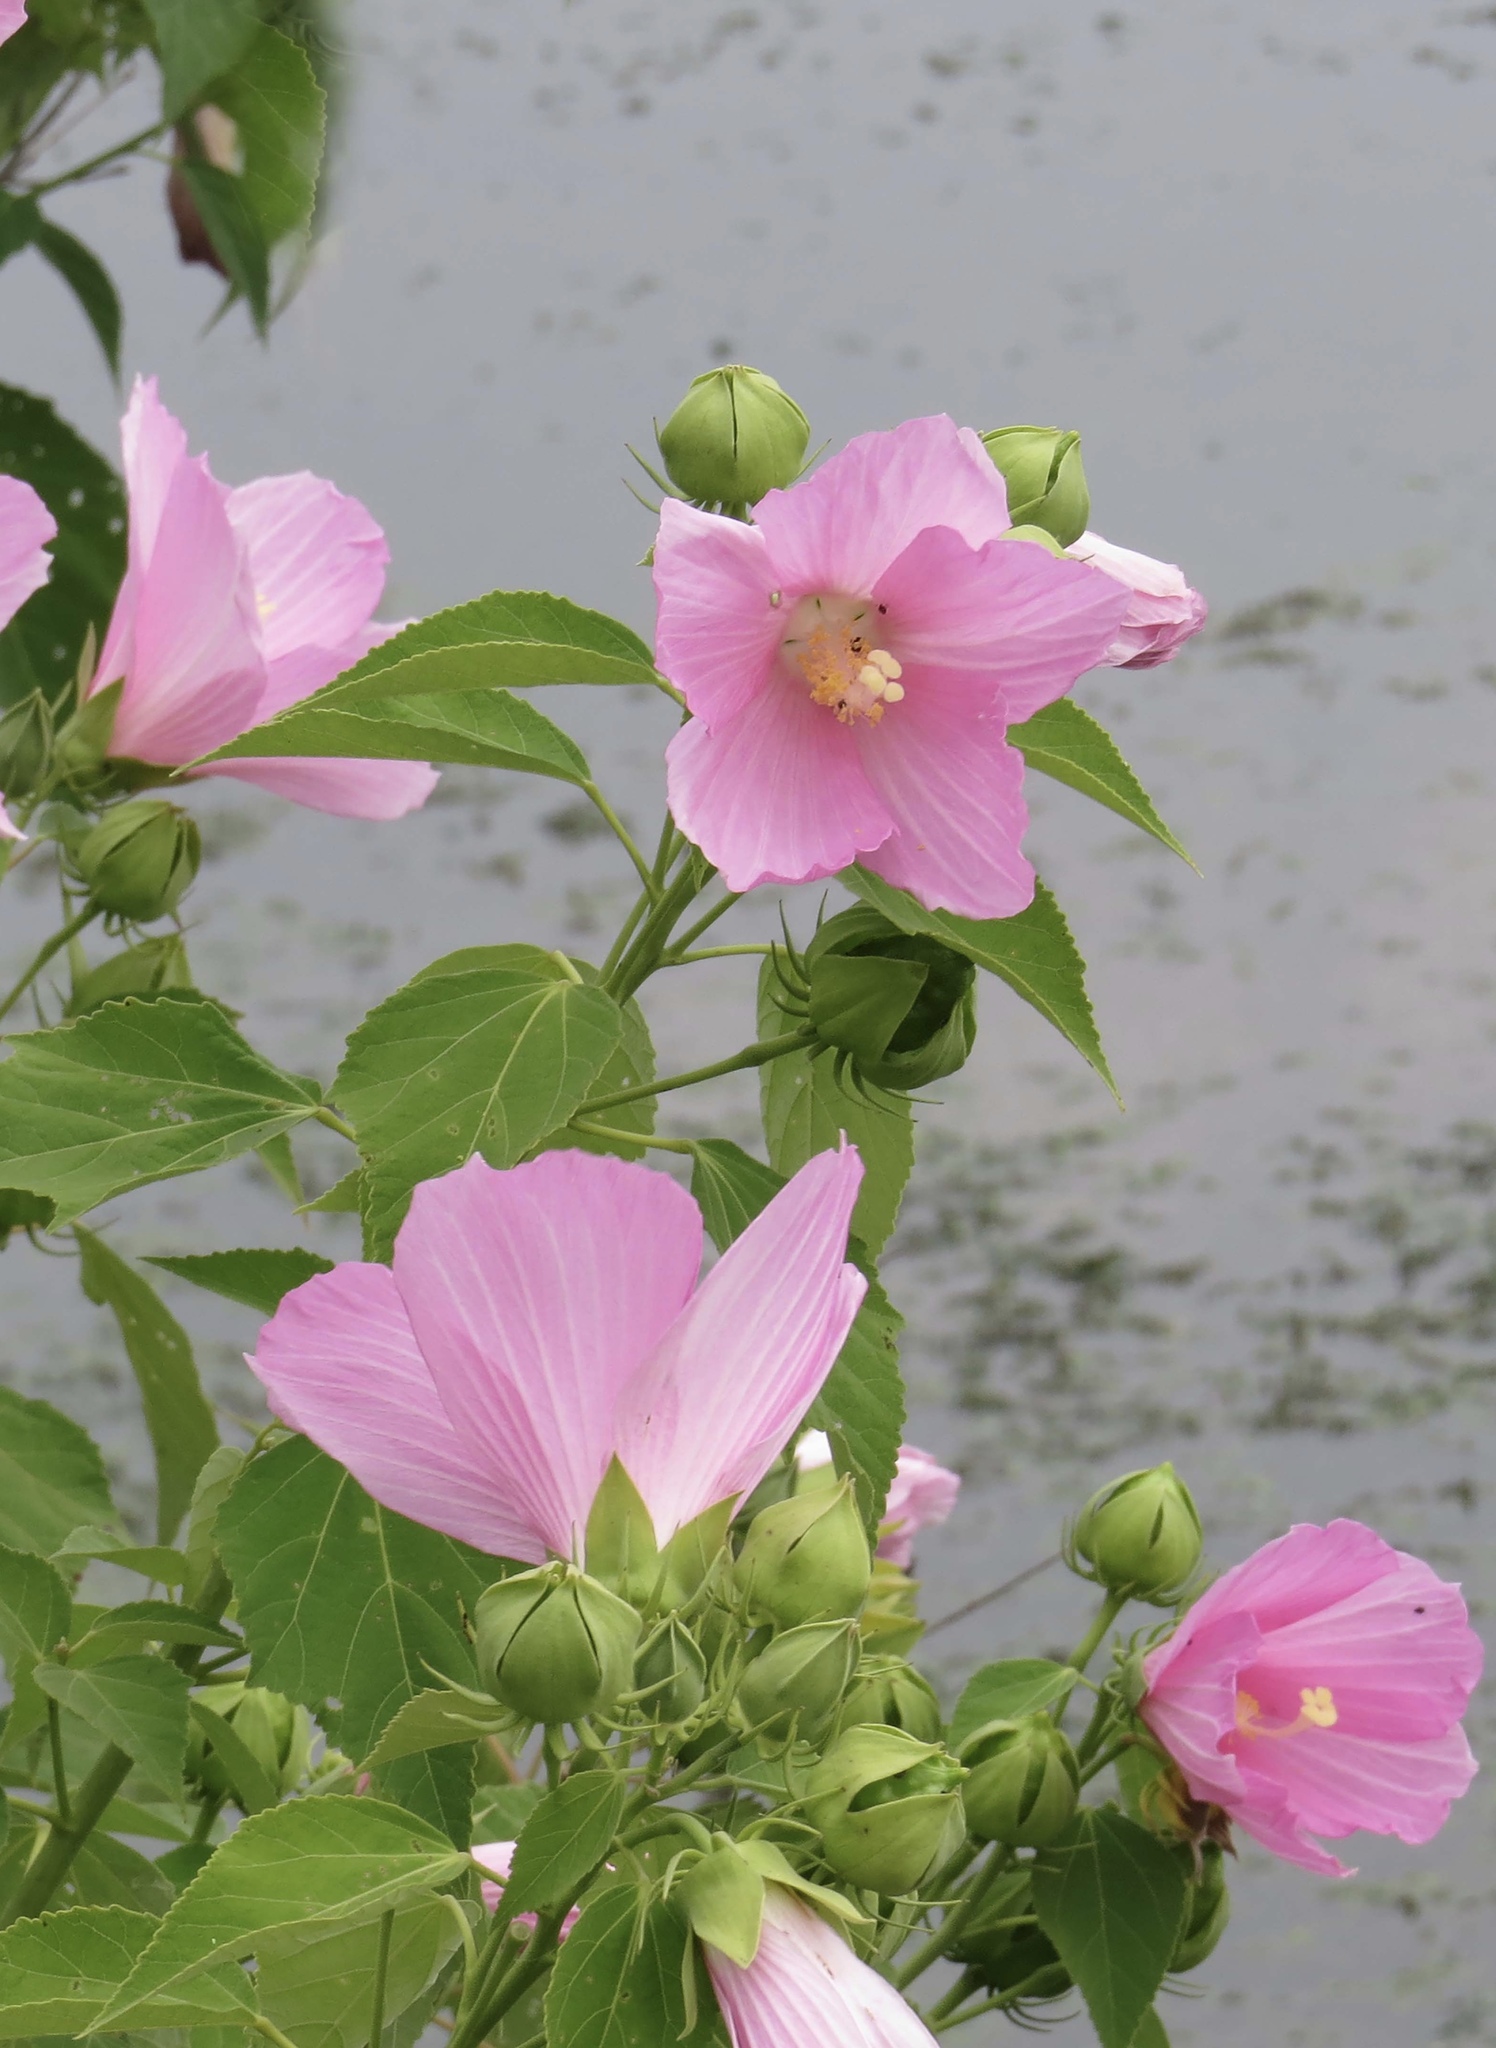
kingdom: Plantae
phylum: Tracheophyta
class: Magnoliopsida
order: Malvales
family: Malvaceae
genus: Hibiscus
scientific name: Hibiscus moscheutos
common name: Common rose-mallow
